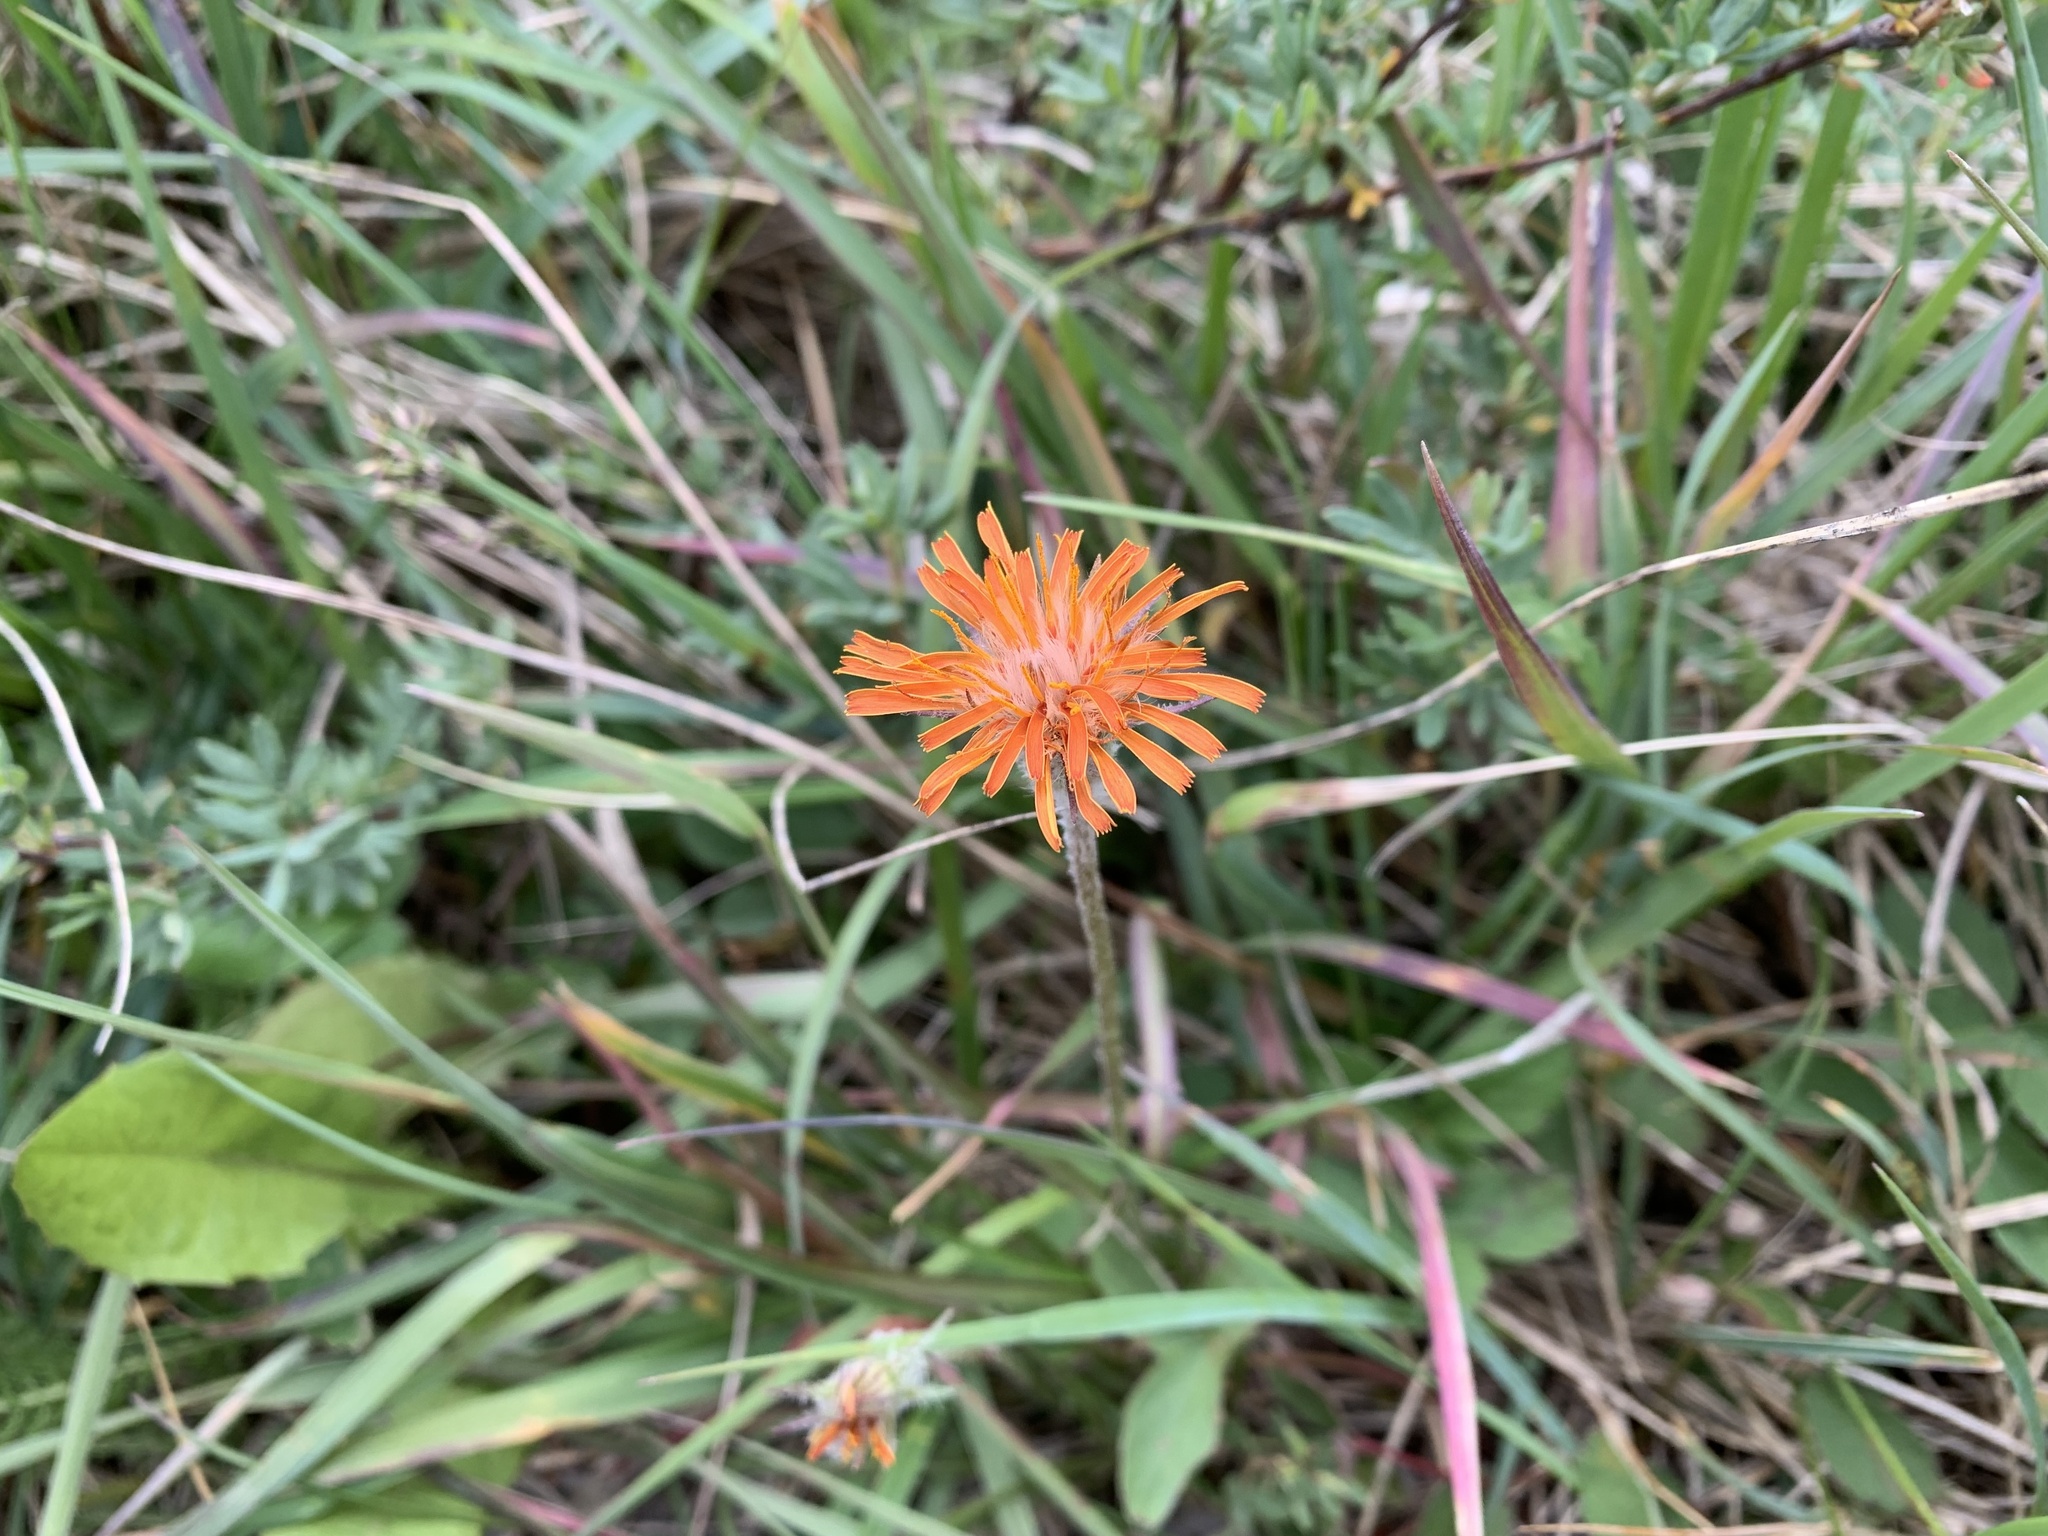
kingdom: Plantae
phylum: Tracheophyta
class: Magnoliopsida
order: Asterales
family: Asteraceae
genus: Agoseris
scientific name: Agoseris aurantiaca
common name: Mountain agoseris
